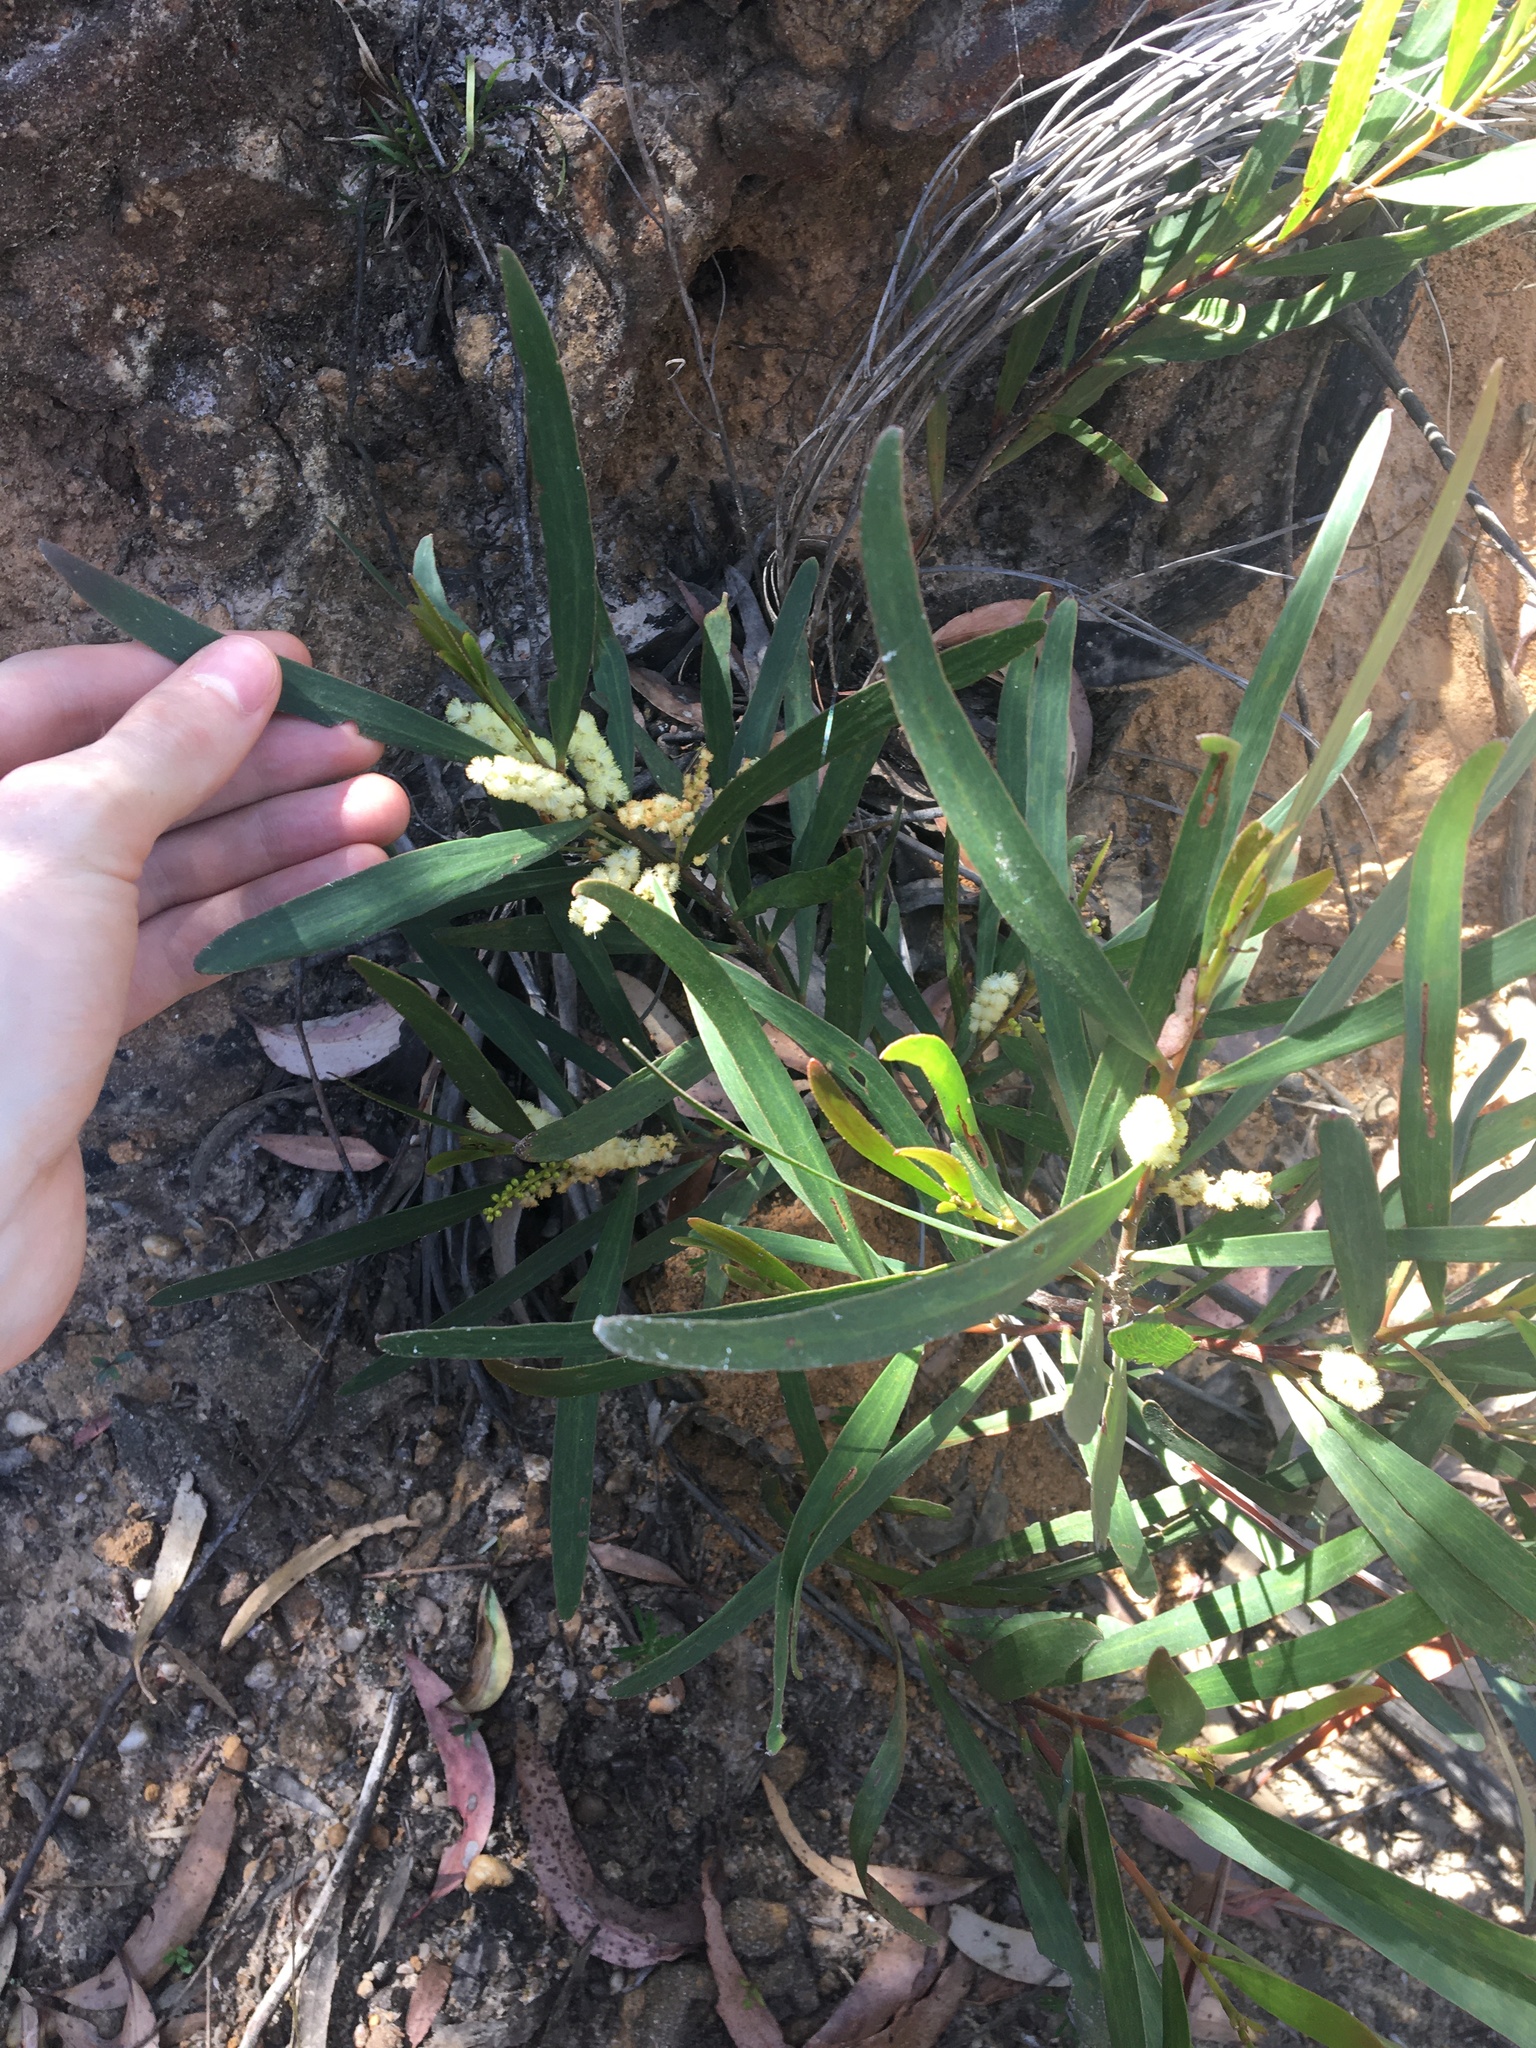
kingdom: Plantae
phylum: Tracheophyta
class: Magnoliopsida
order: Fabales
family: Fabaceae
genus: Acacia
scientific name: Acacia obtusifolia
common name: Stiff-leaf wattle
